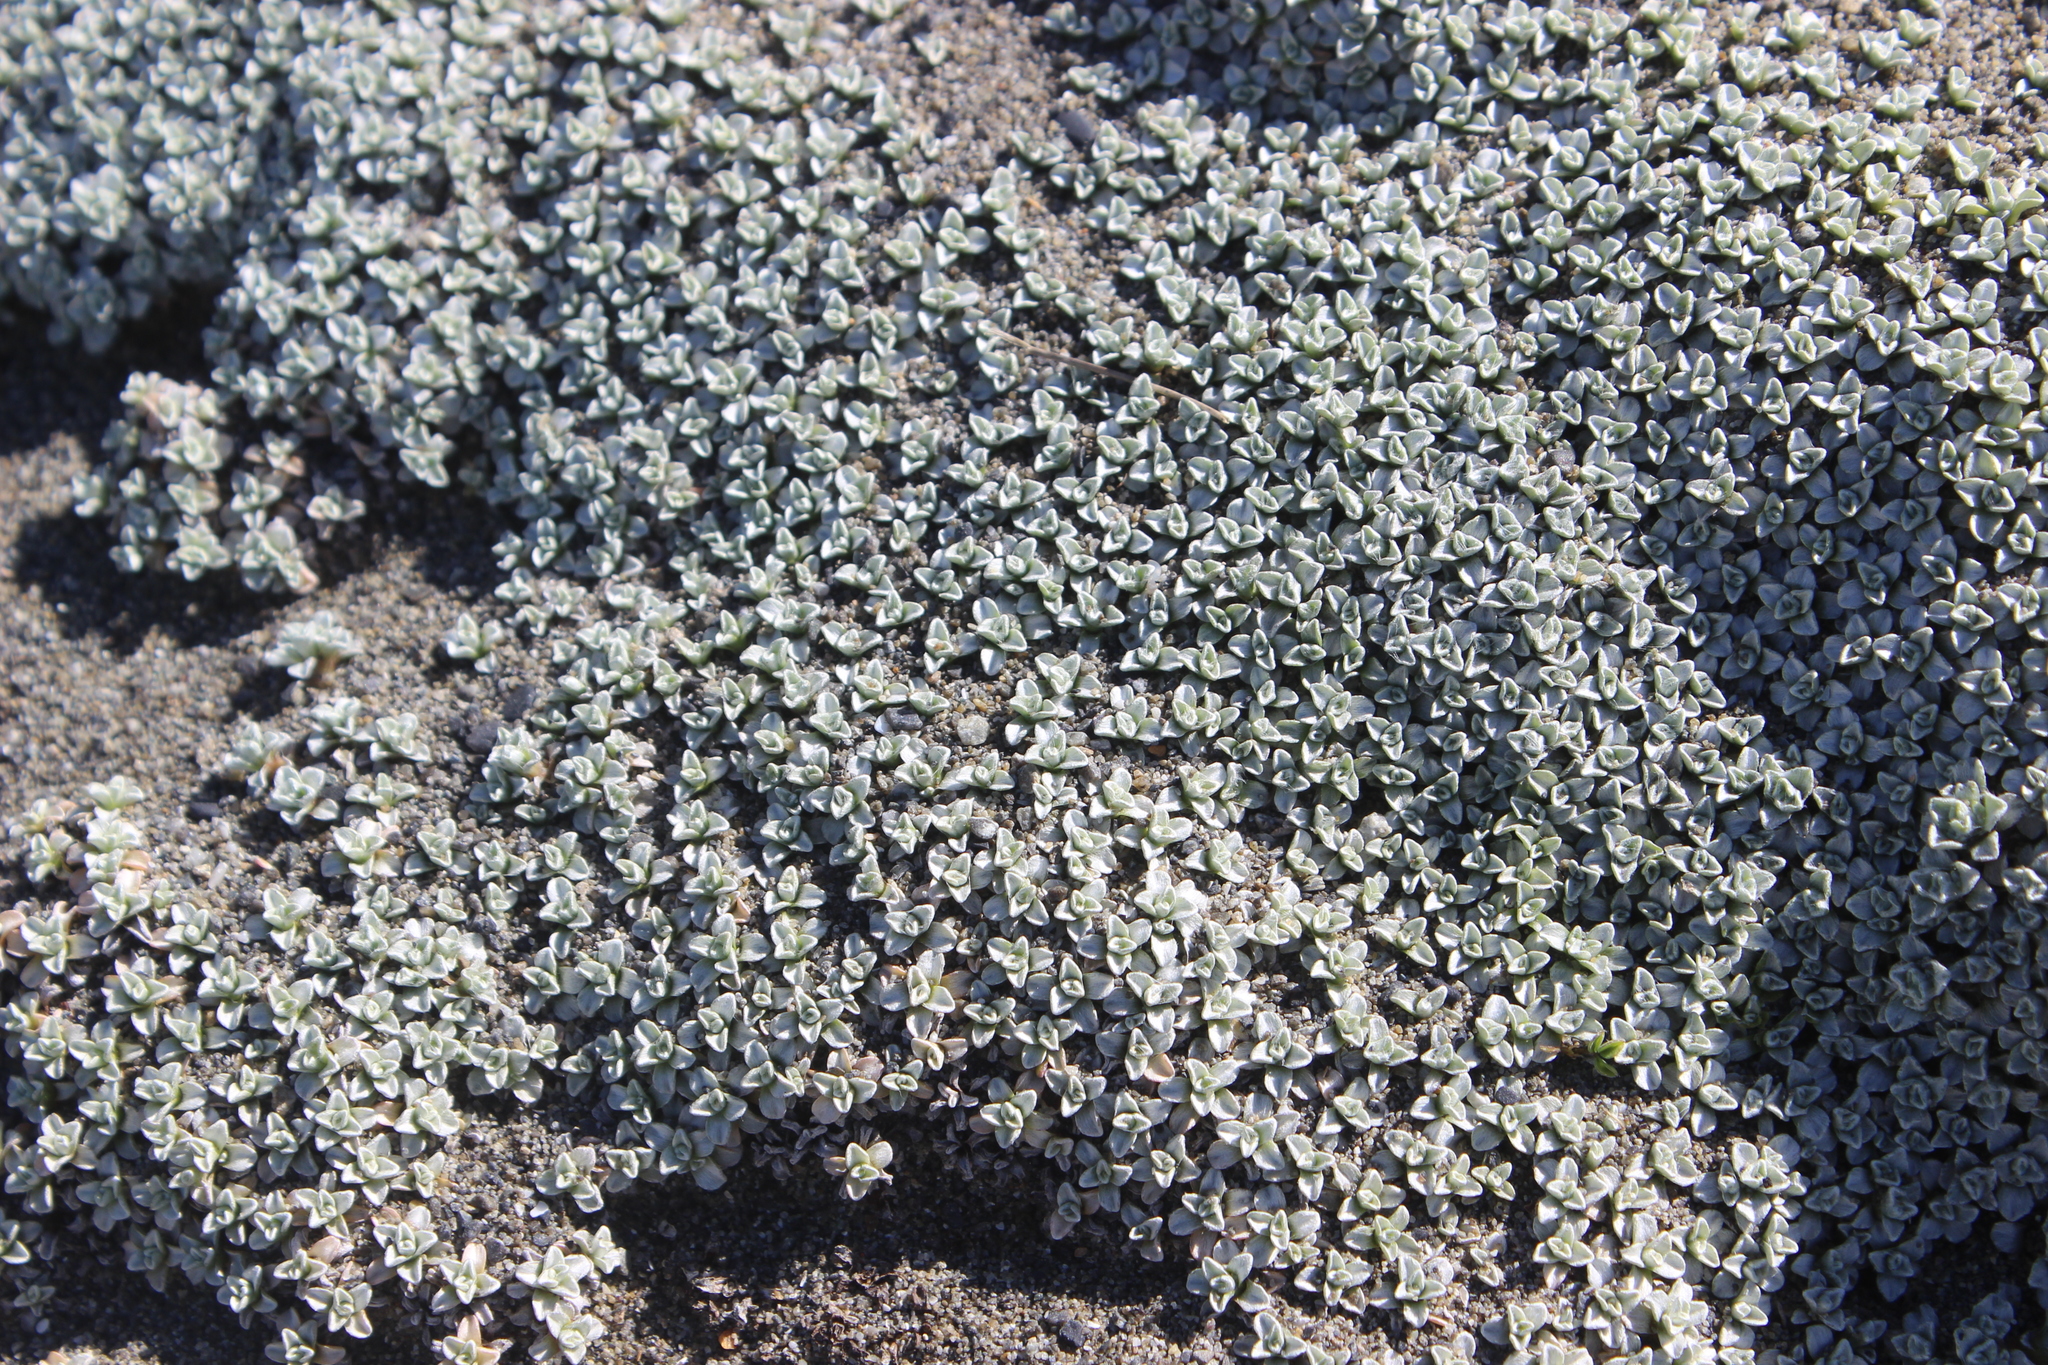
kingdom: Plantae
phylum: Tracheophyta
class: Magnoliopsida
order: Asterales
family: Asteraceae
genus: Raoulia
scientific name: Raoulia hookeri
